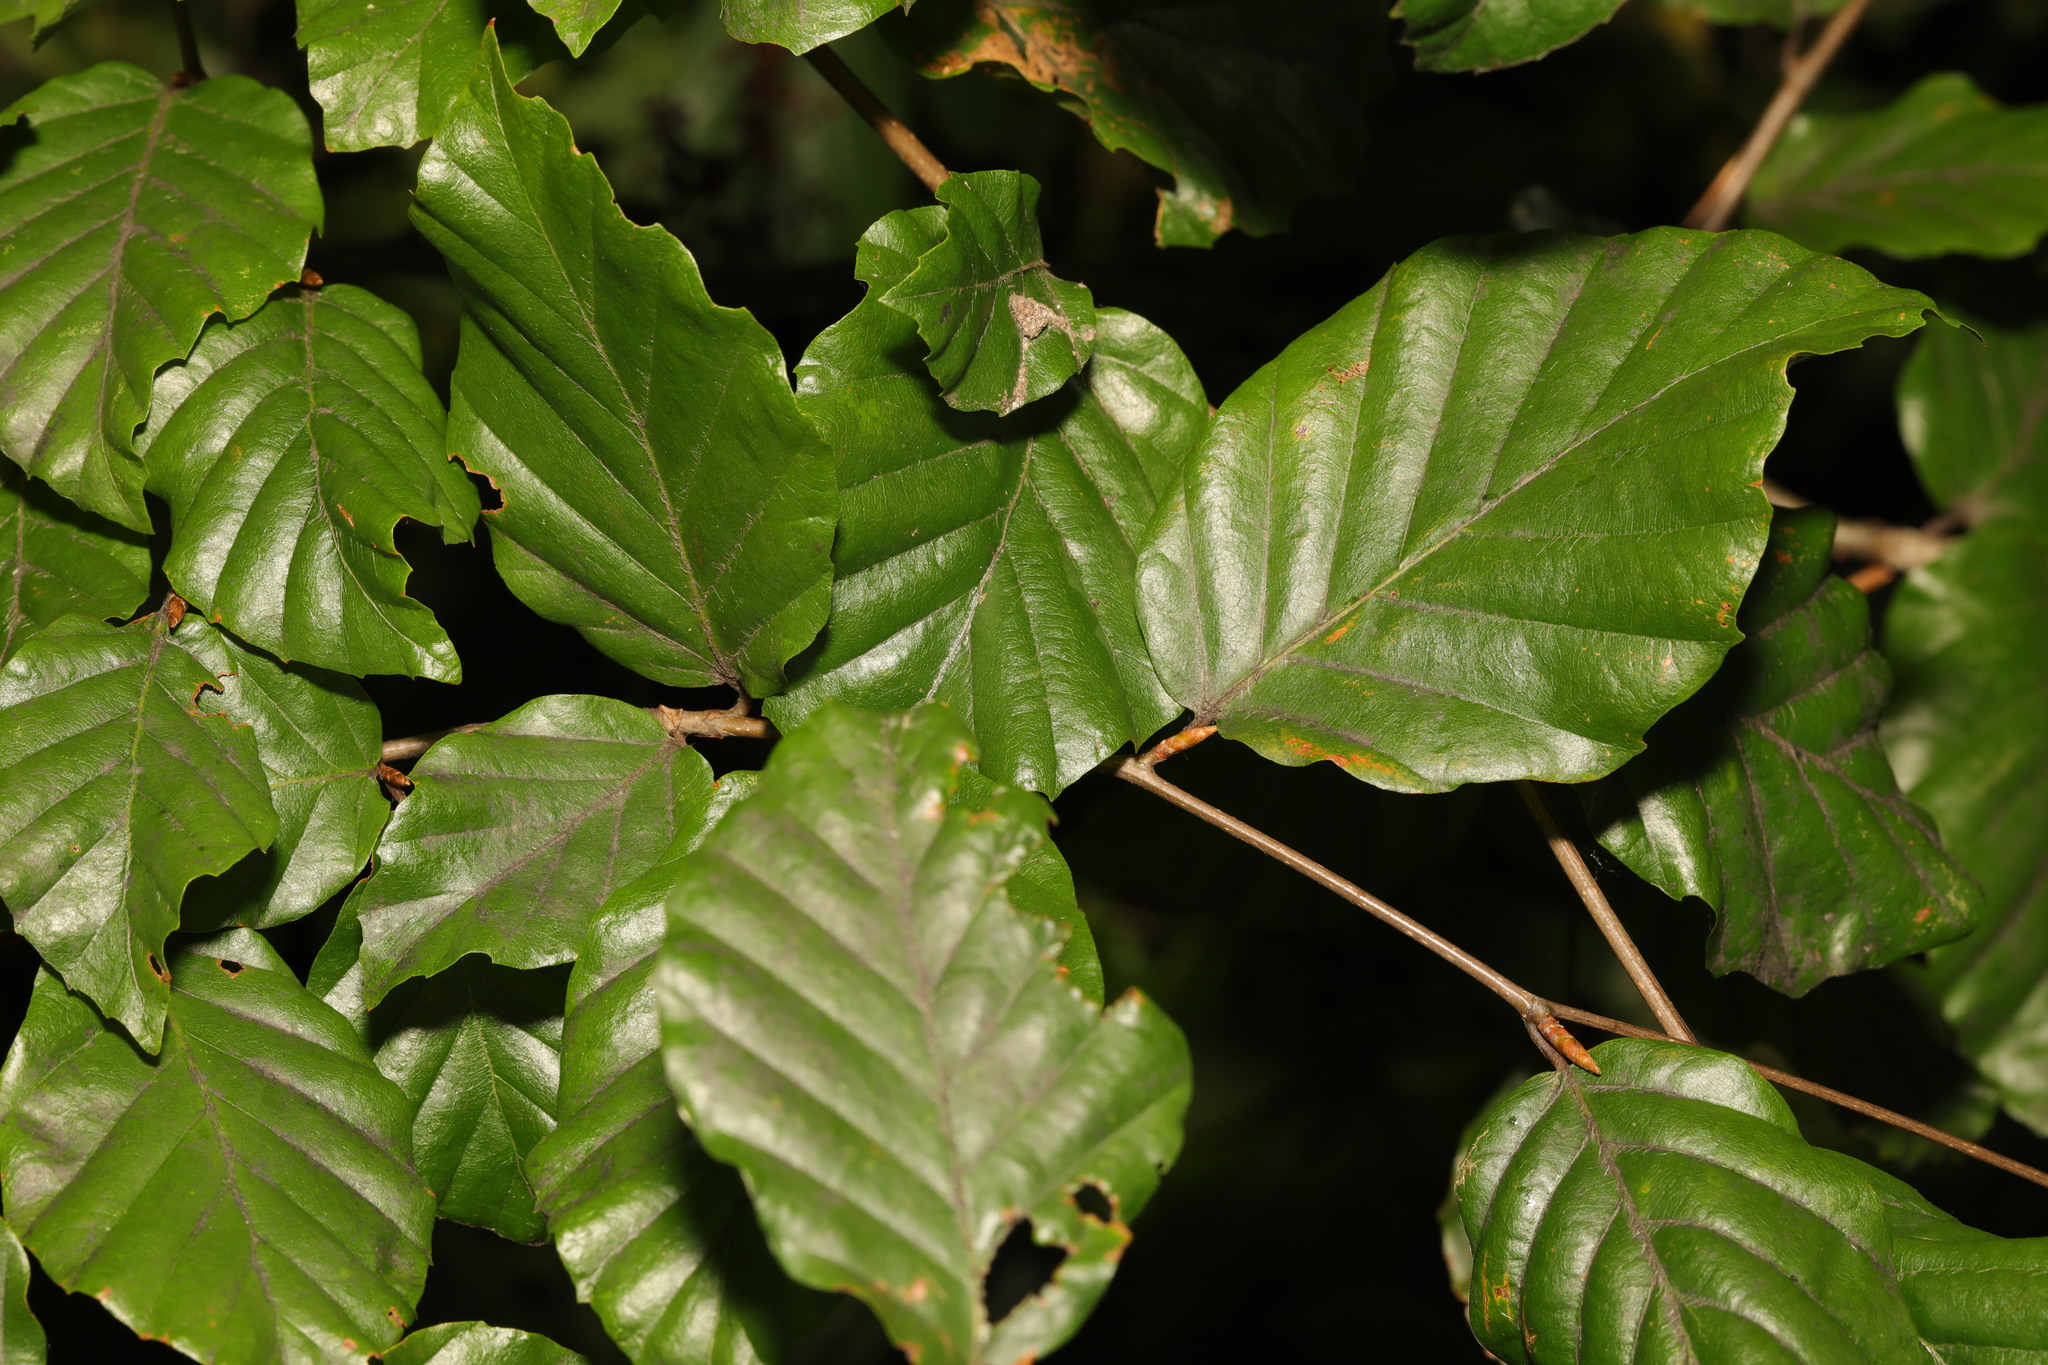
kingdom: Plantae
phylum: Tracheophyta
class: Magnoliopsida
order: Fagales
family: Fagaceae
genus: Fagus
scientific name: Fagus sylvatica
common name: Beech
